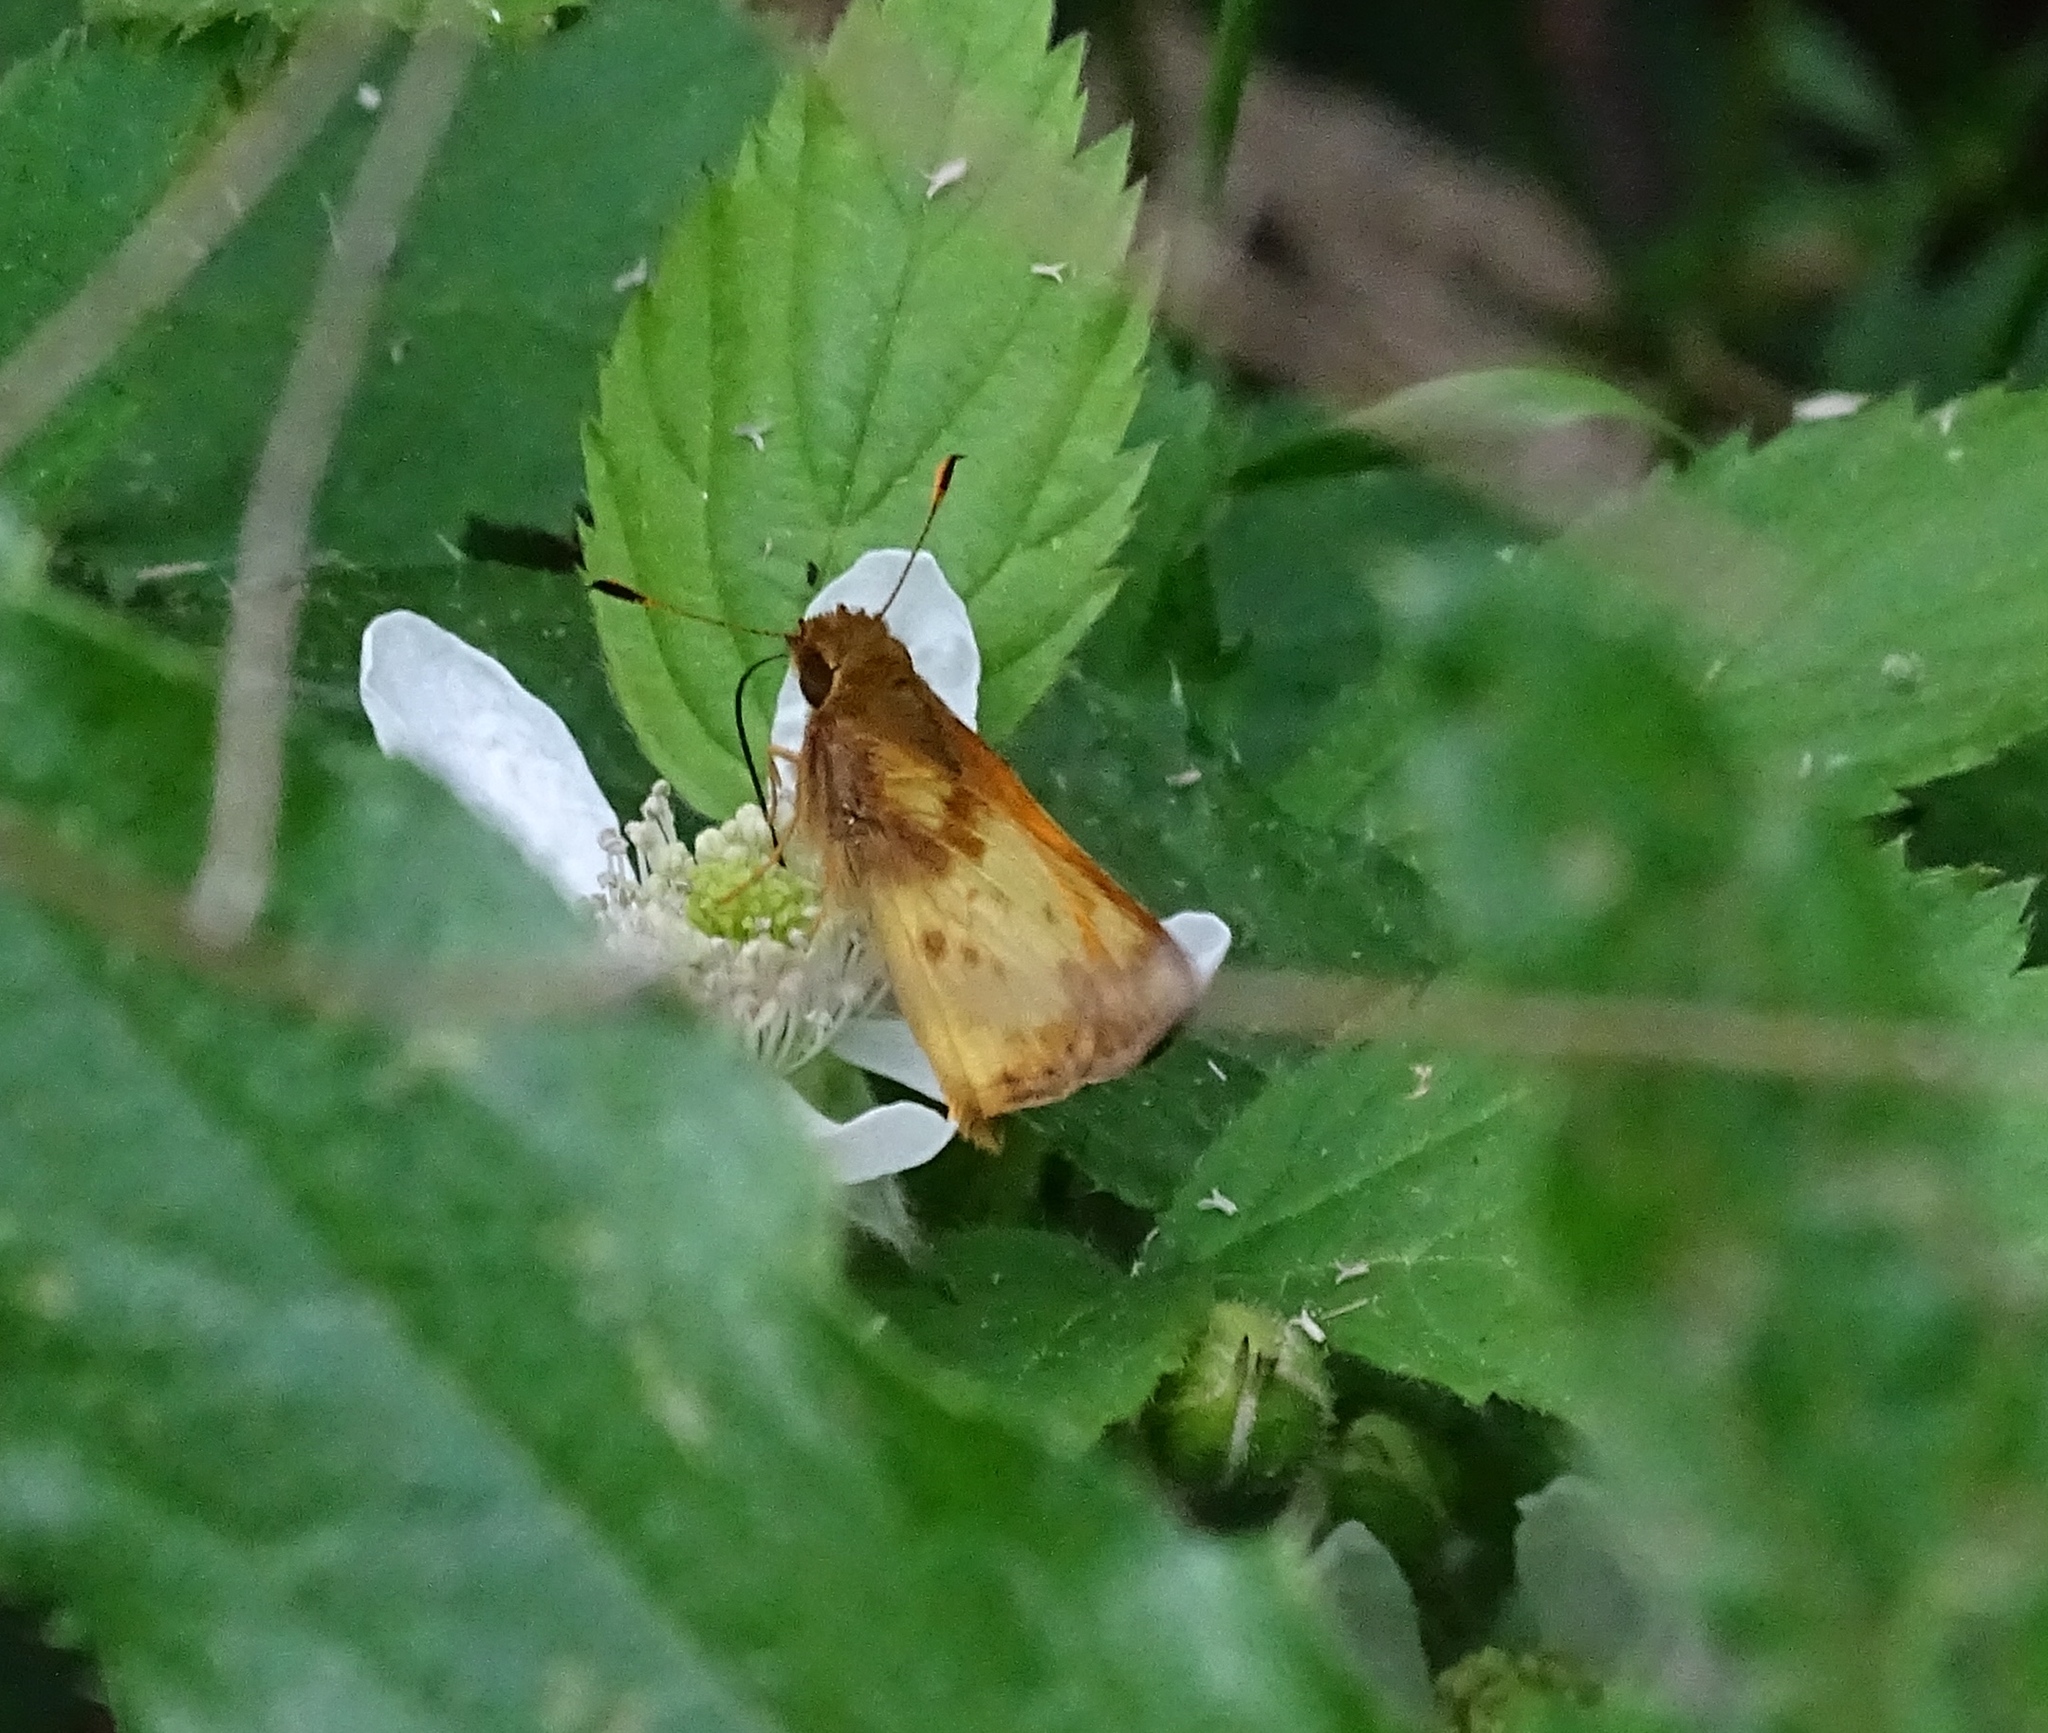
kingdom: Animalia
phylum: Arthropoda
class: Insecta
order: Lepidoptera
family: Hesperiidae
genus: Lon
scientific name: Lon zabulon
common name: Zabulon skipper
